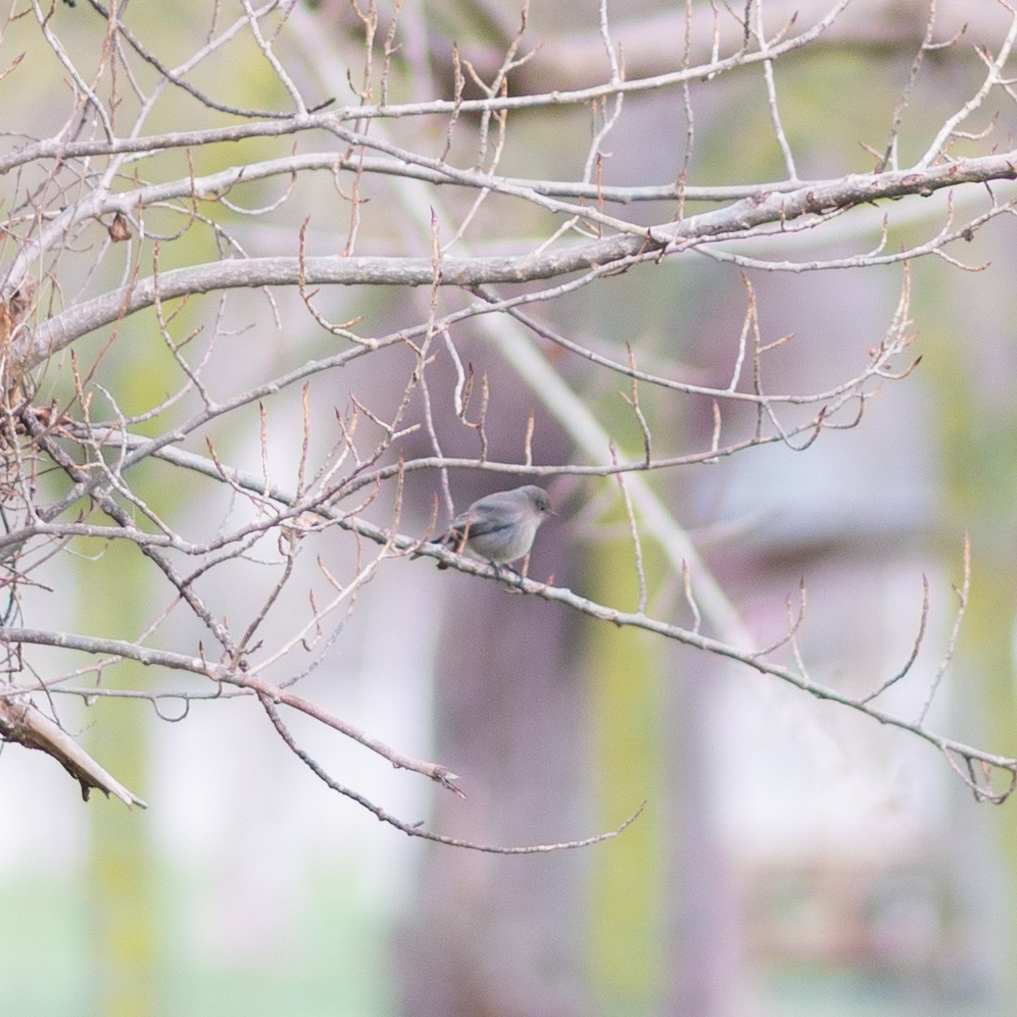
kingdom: Animalia
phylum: Chordata
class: Aves
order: Passeriformes
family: Muscicapidae
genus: Phoenicurus
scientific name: Phoenicurus ochruros
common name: Black redstart
